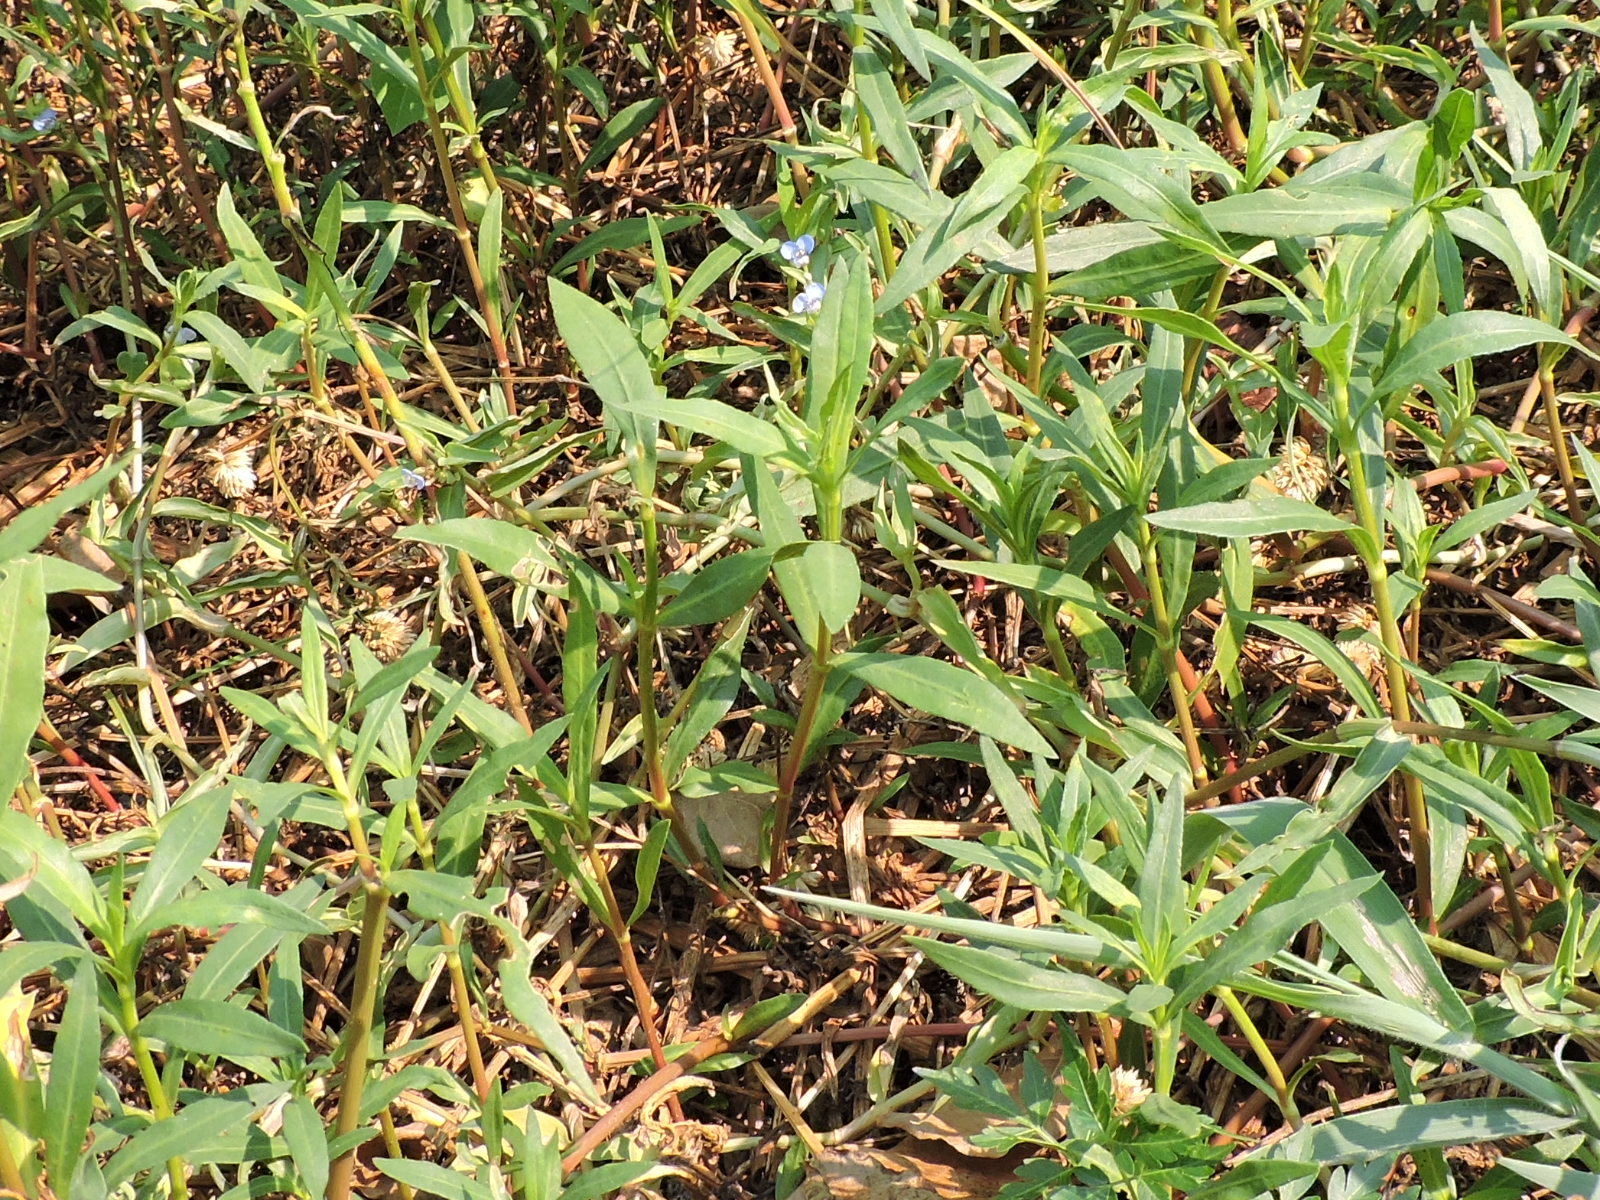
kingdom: Plantae
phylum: Tracheophyta
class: Liliopsida
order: Commelinales
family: Commelinaceae
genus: Commelina
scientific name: Commelina diffusa
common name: Climbing dayflower
